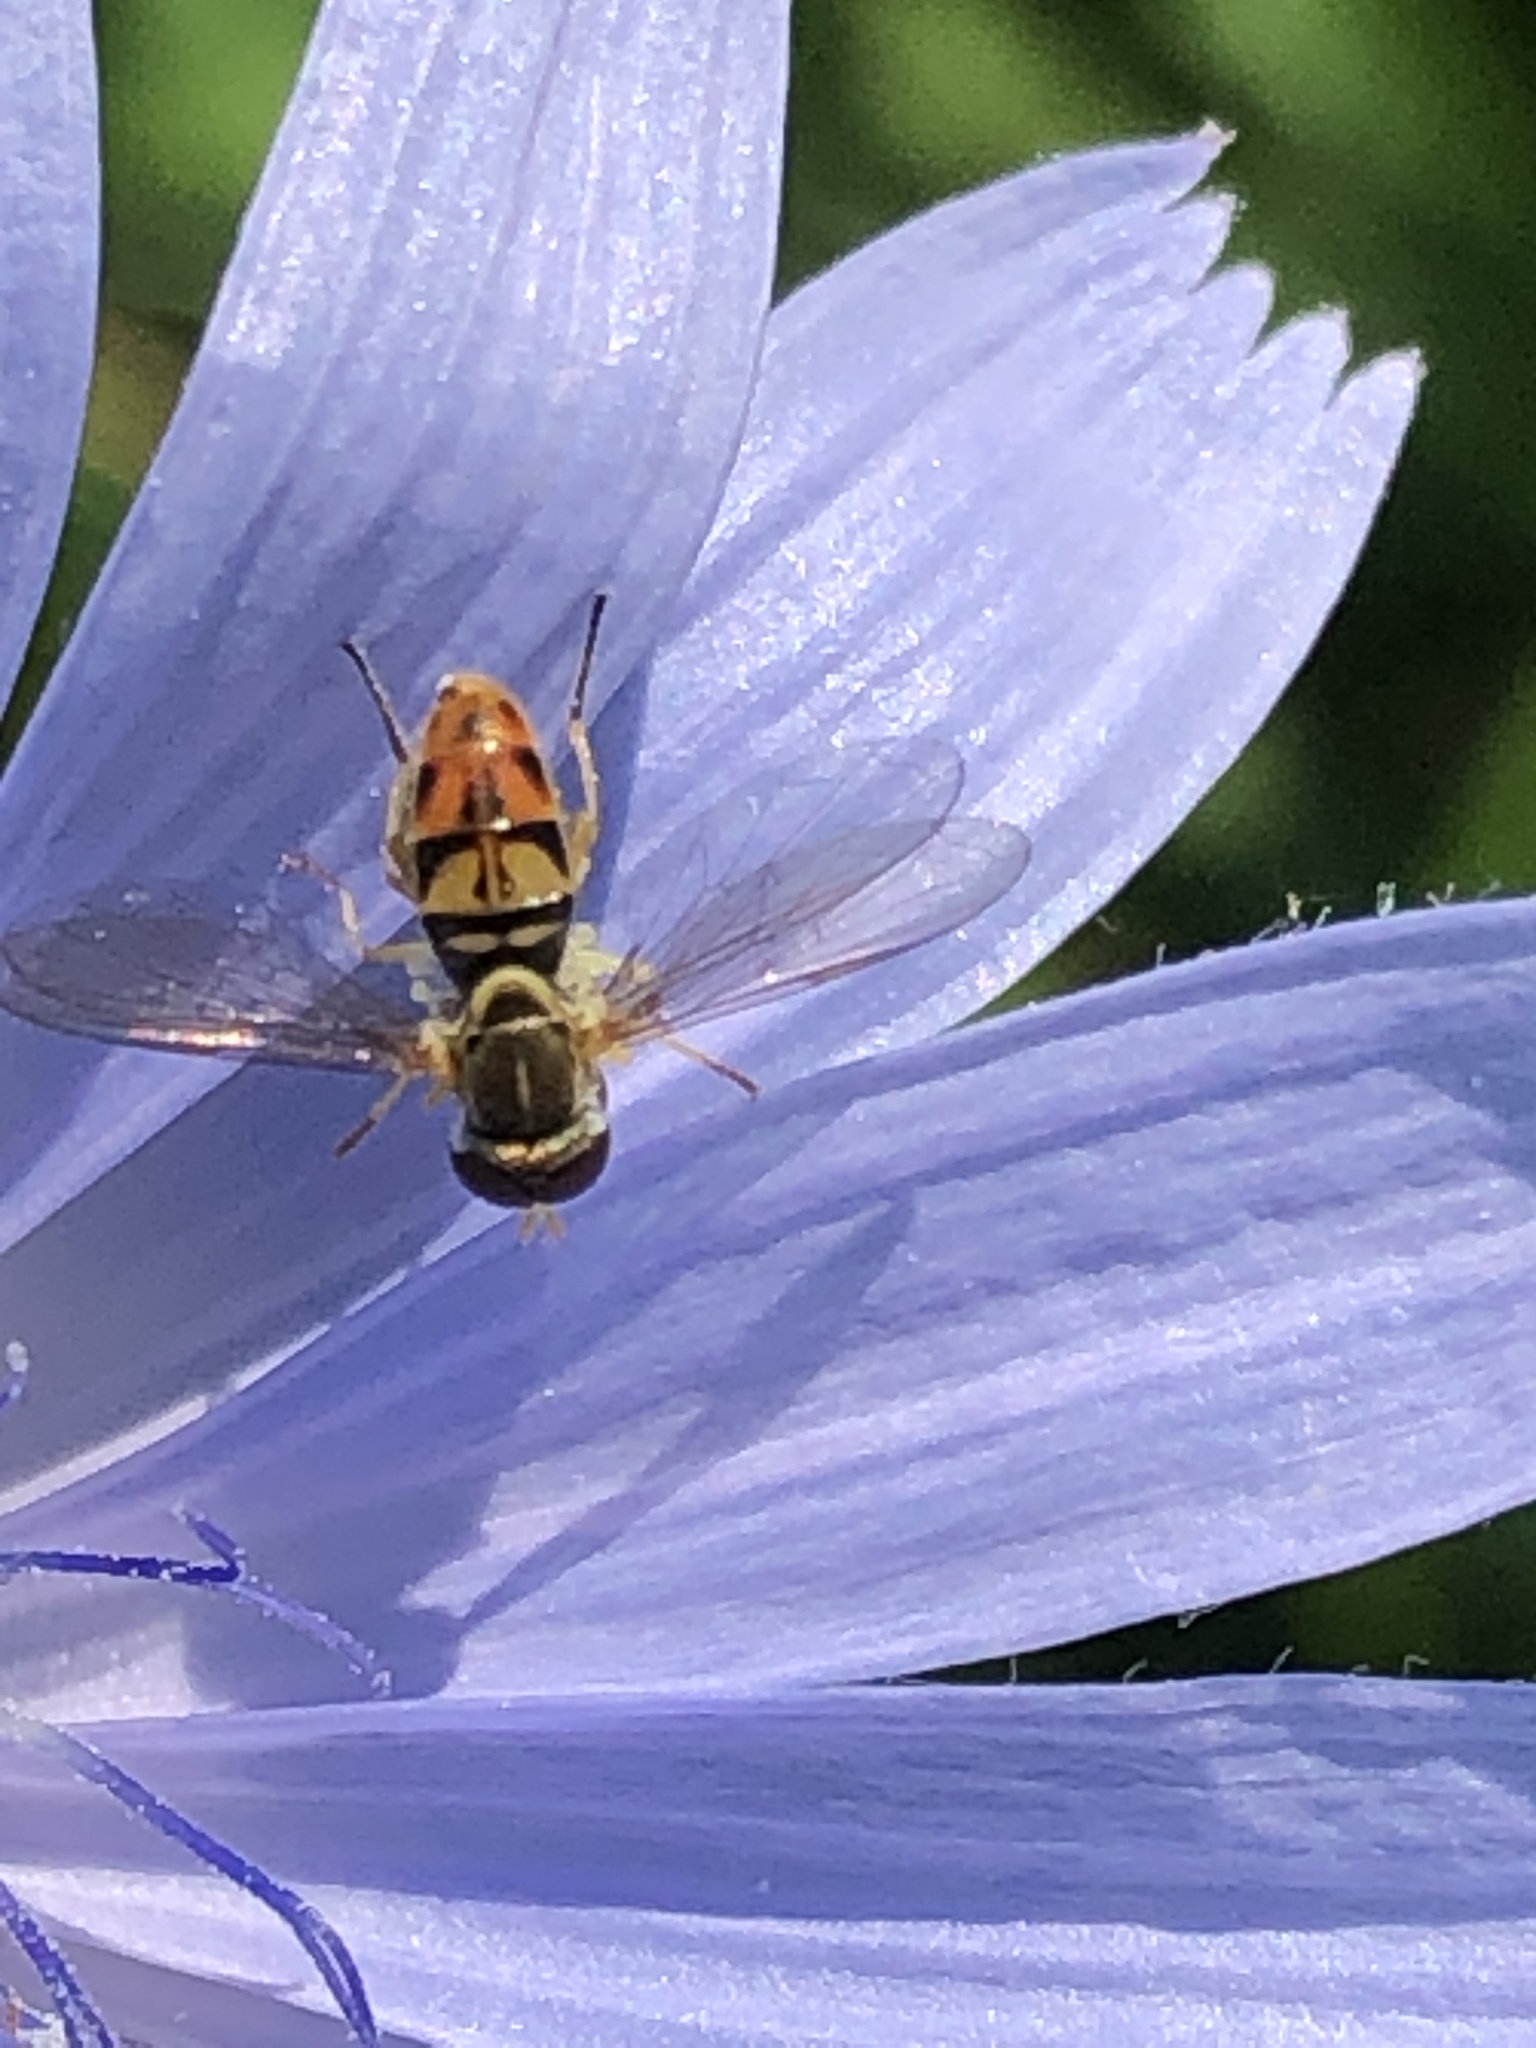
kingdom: Animalia
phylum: Arthropoda
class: Insecta
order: Diptera
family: Syrphidae
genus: Toxomerus
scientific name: Toxomerus marginatus
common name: Syrphid fly
